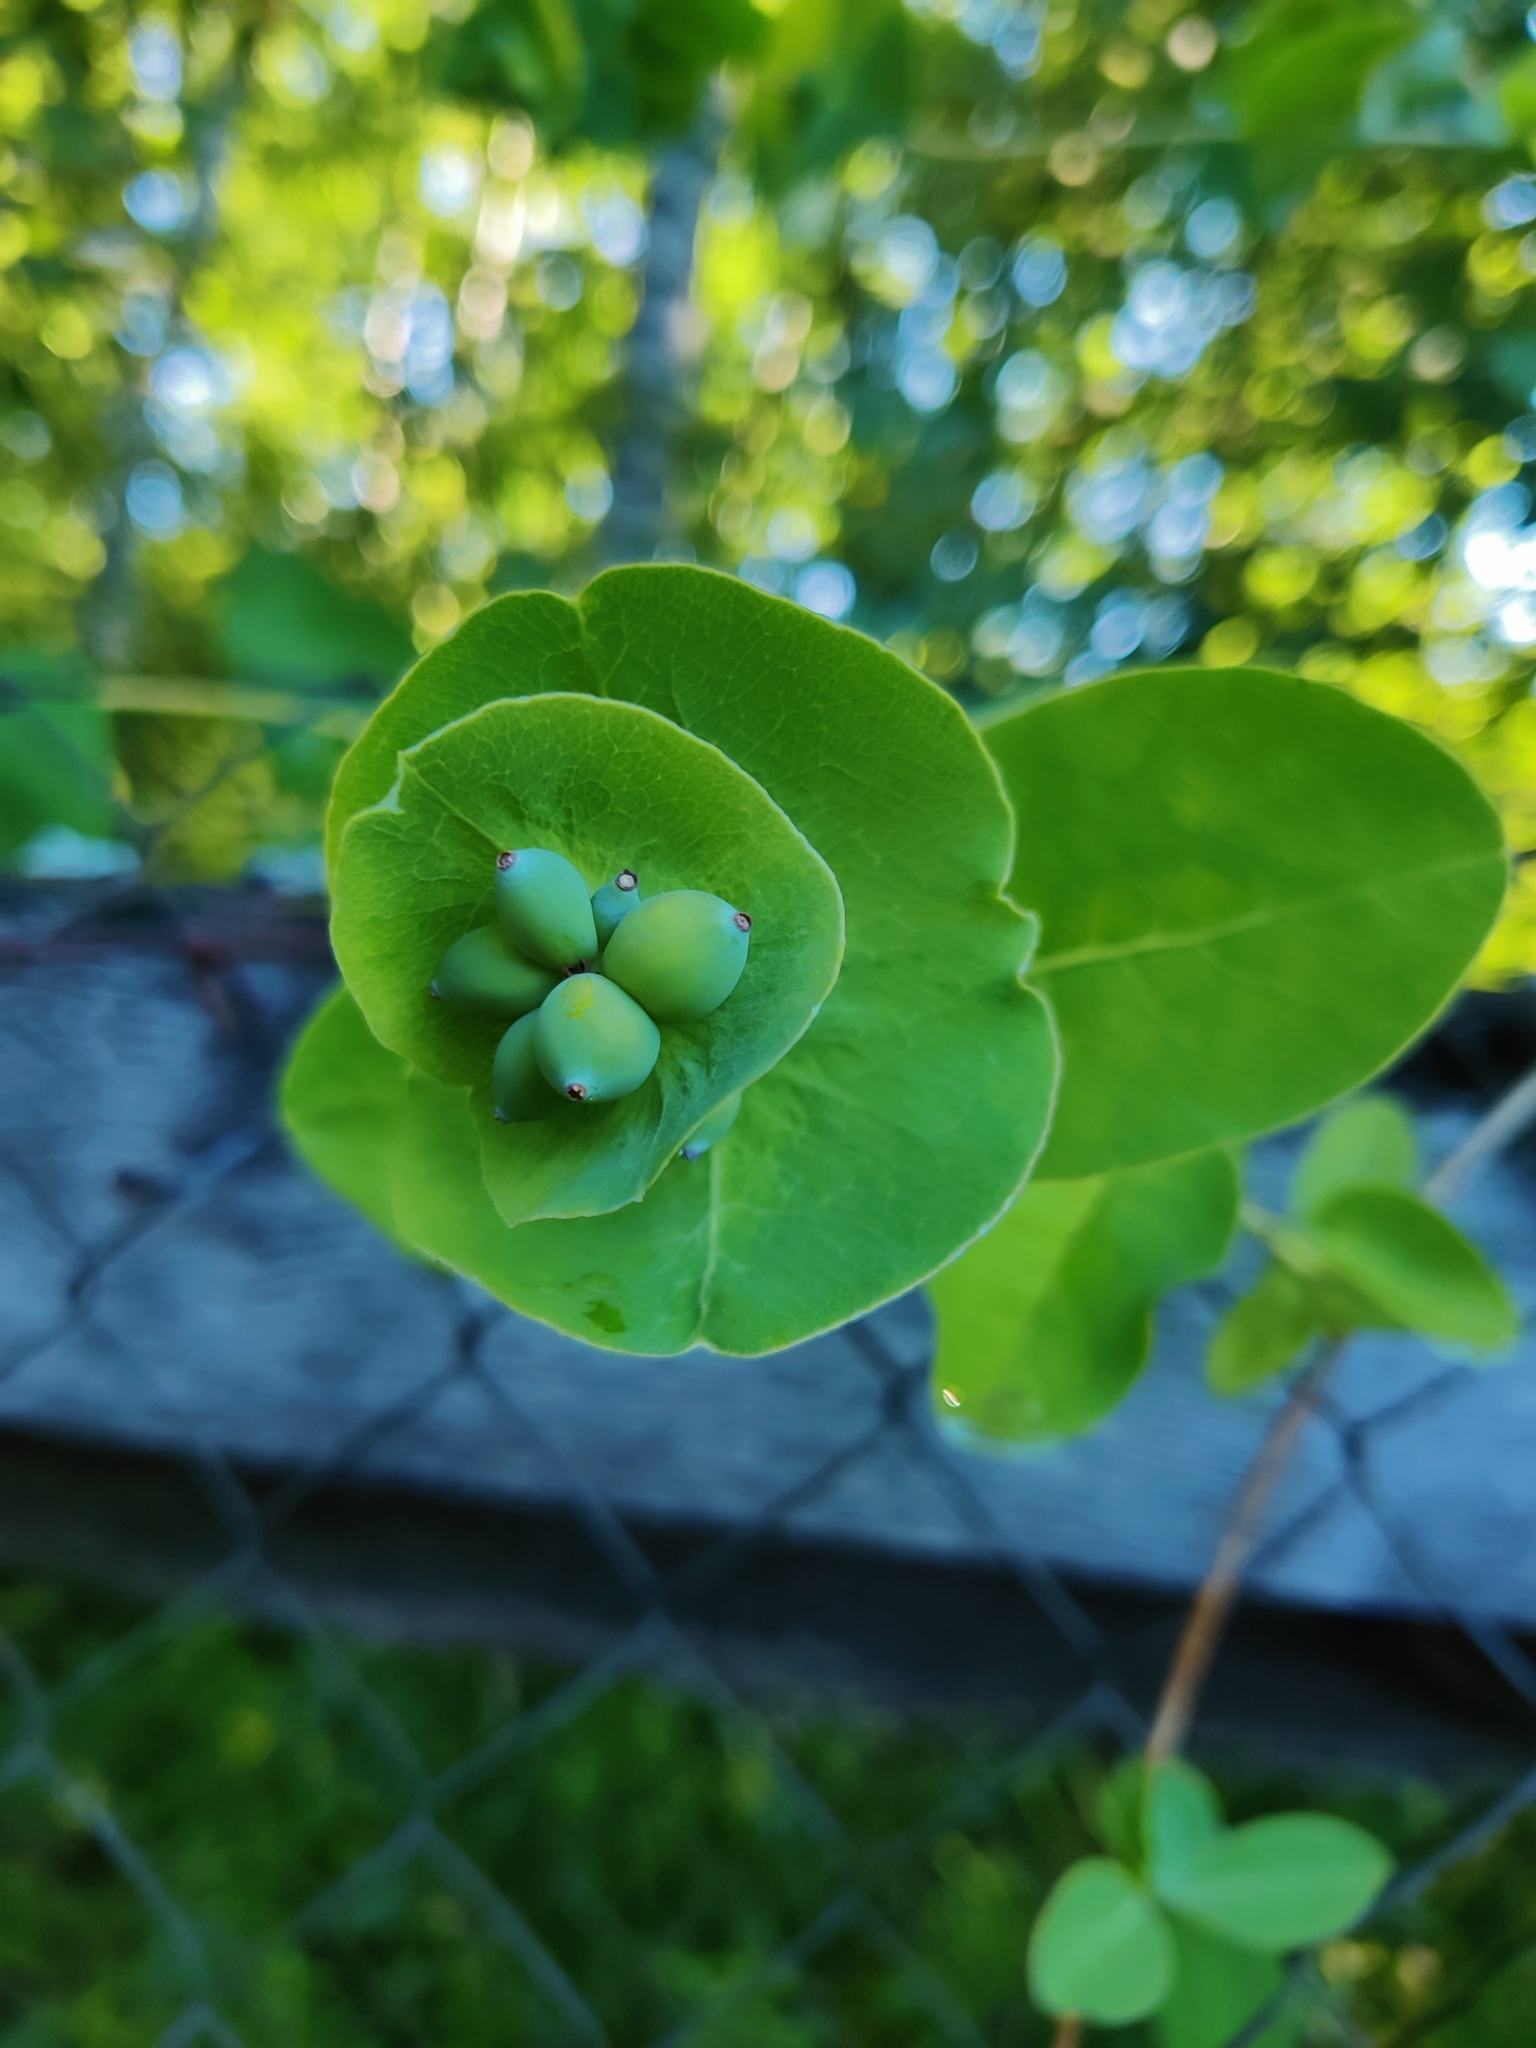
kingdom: Plantae
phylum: Tracheophyta
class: Magnoliopsida
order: Dipsacales
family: Caprifoliaceae
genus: Lonicera
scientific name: Lonicera caprifolium
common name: Perfoliate honeysuckle
